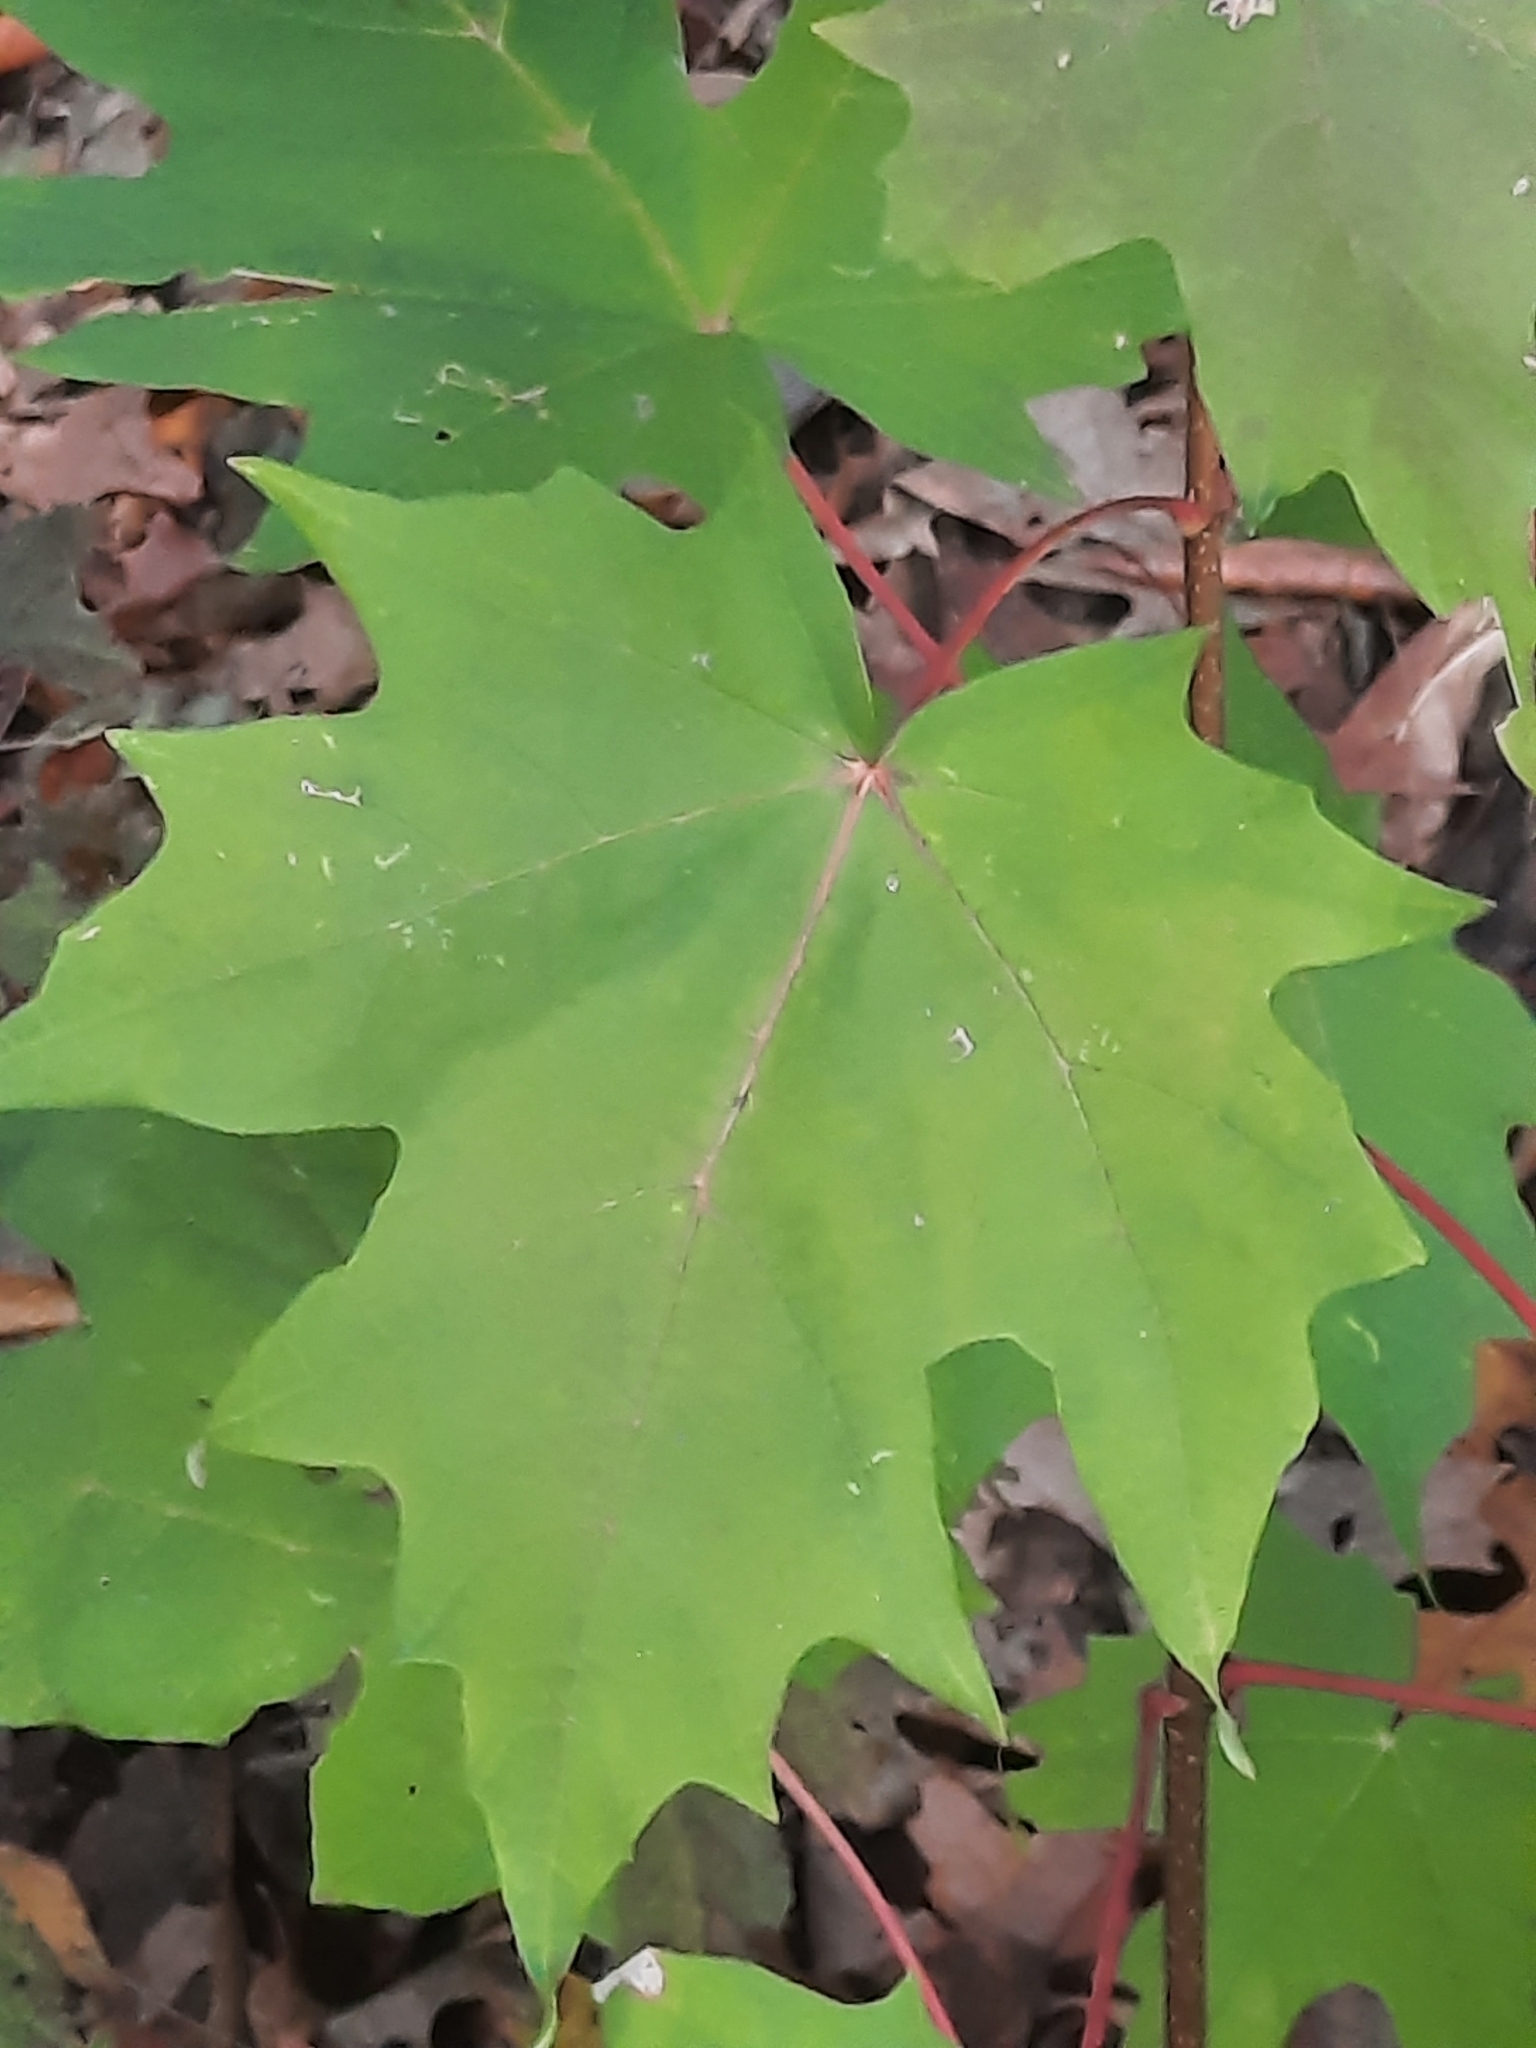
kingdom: Plantae
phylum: Tracheophyta
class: Magnoliopsida
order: Sapindales
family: Sapindaceae
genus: Acer
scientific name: Acer saccharum
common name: Sugar maple
